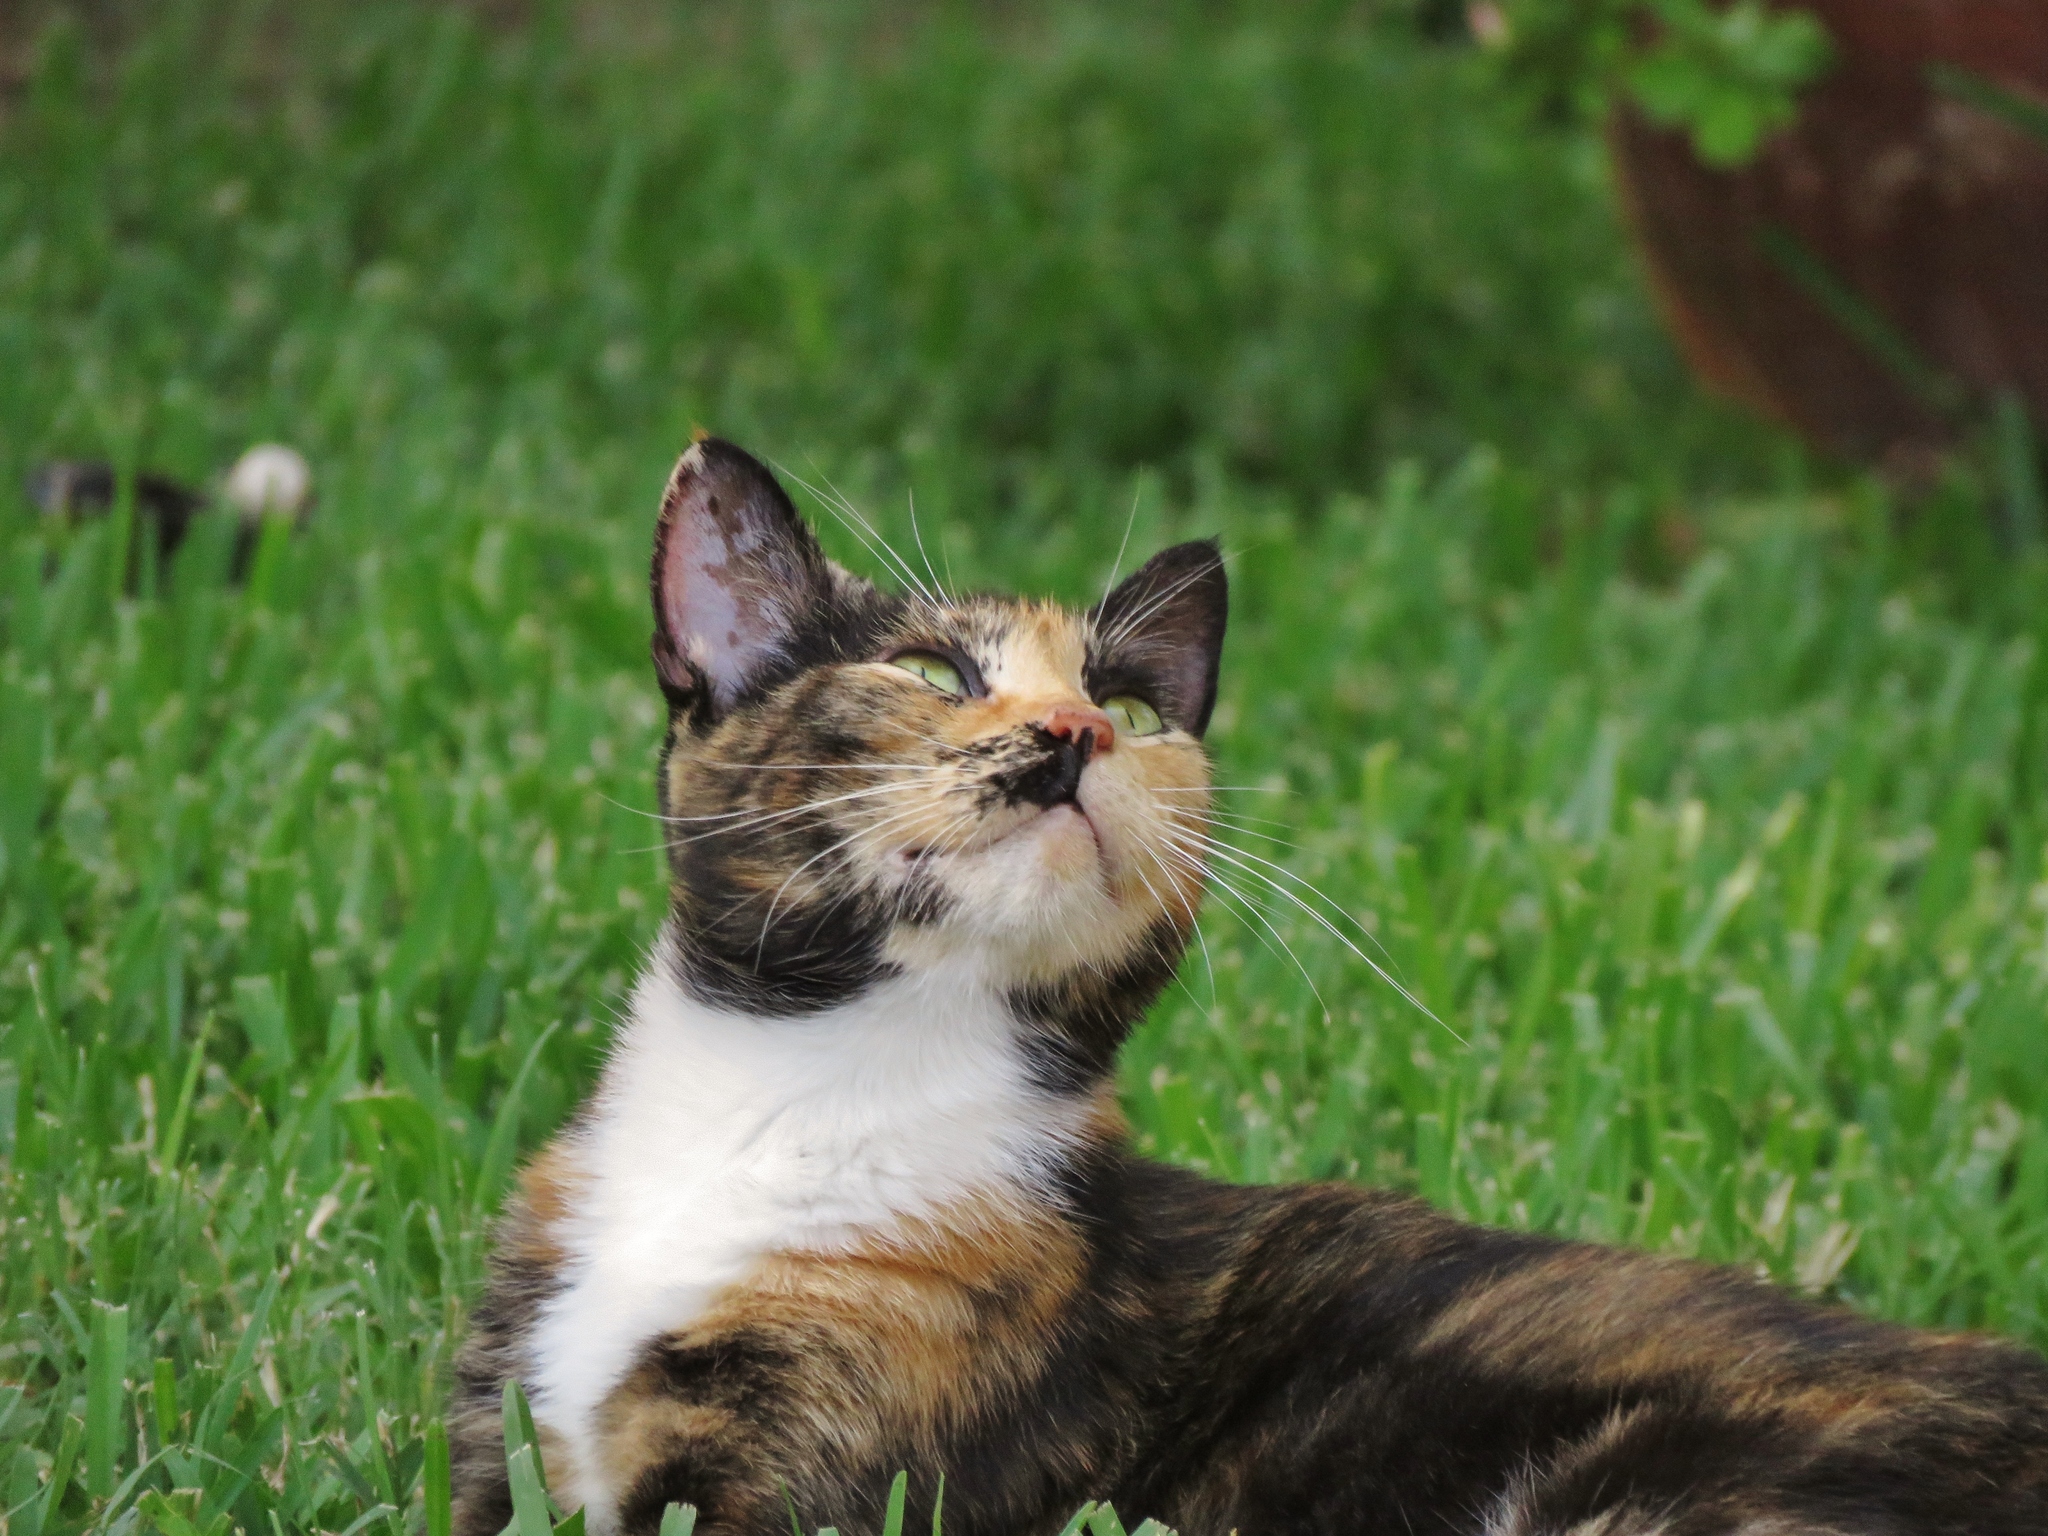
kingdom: Animalia
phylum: Chordata
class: Mammalia
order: Carnivora
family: Felidae
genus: Felis
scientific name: Felis catus
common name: Domestic cat
